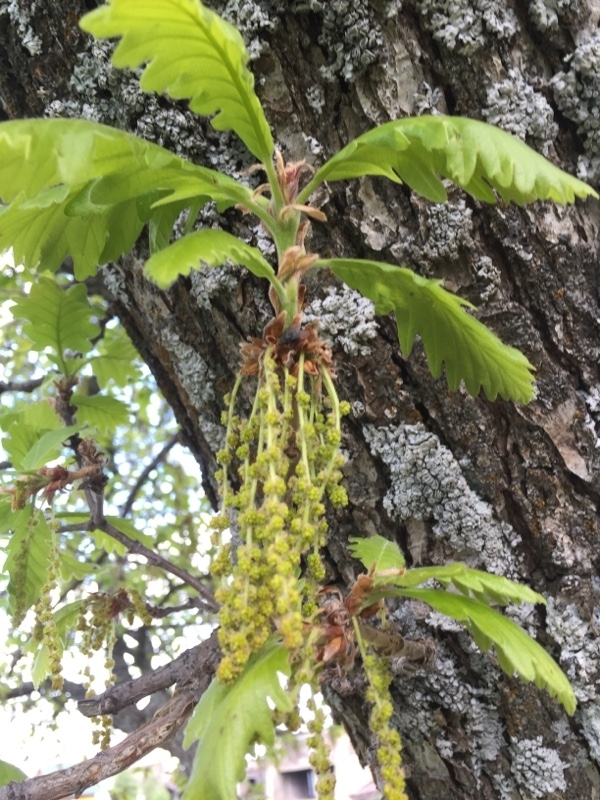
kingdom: Plantae
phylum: Tracheophyta
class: Magnoliopsida
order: Fagales
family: Fagaceae
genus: Quercus
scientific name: Quercus macranthera
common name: Caucasian oak
